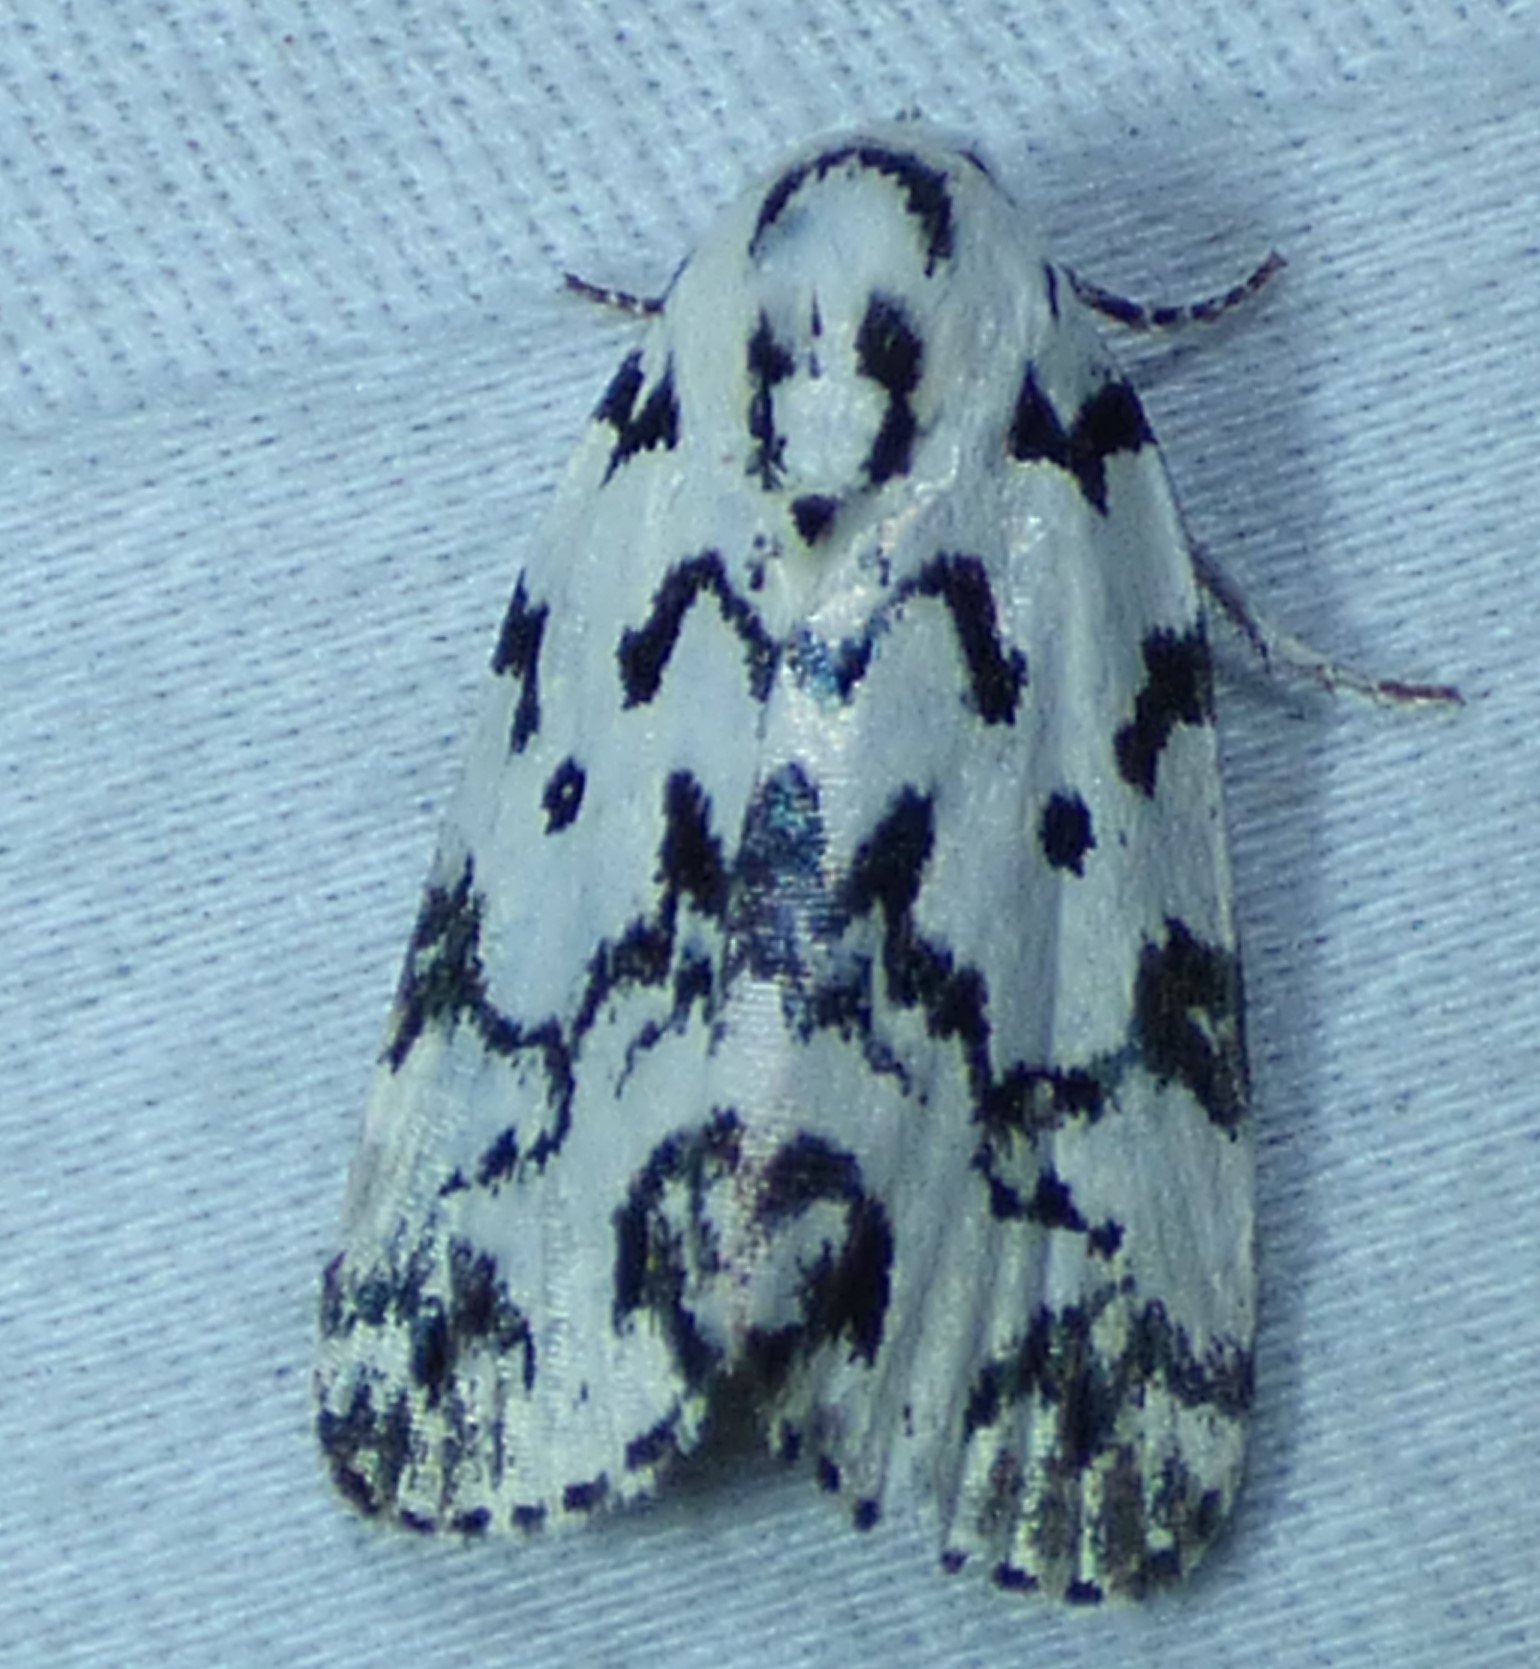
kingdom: Animalia
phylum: Arthropoda
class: Insecta
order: Lepidoptera
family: Noctuidae
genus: Polygrammate
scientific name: Polygrammate hebraeicum
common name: Hebrew moth
